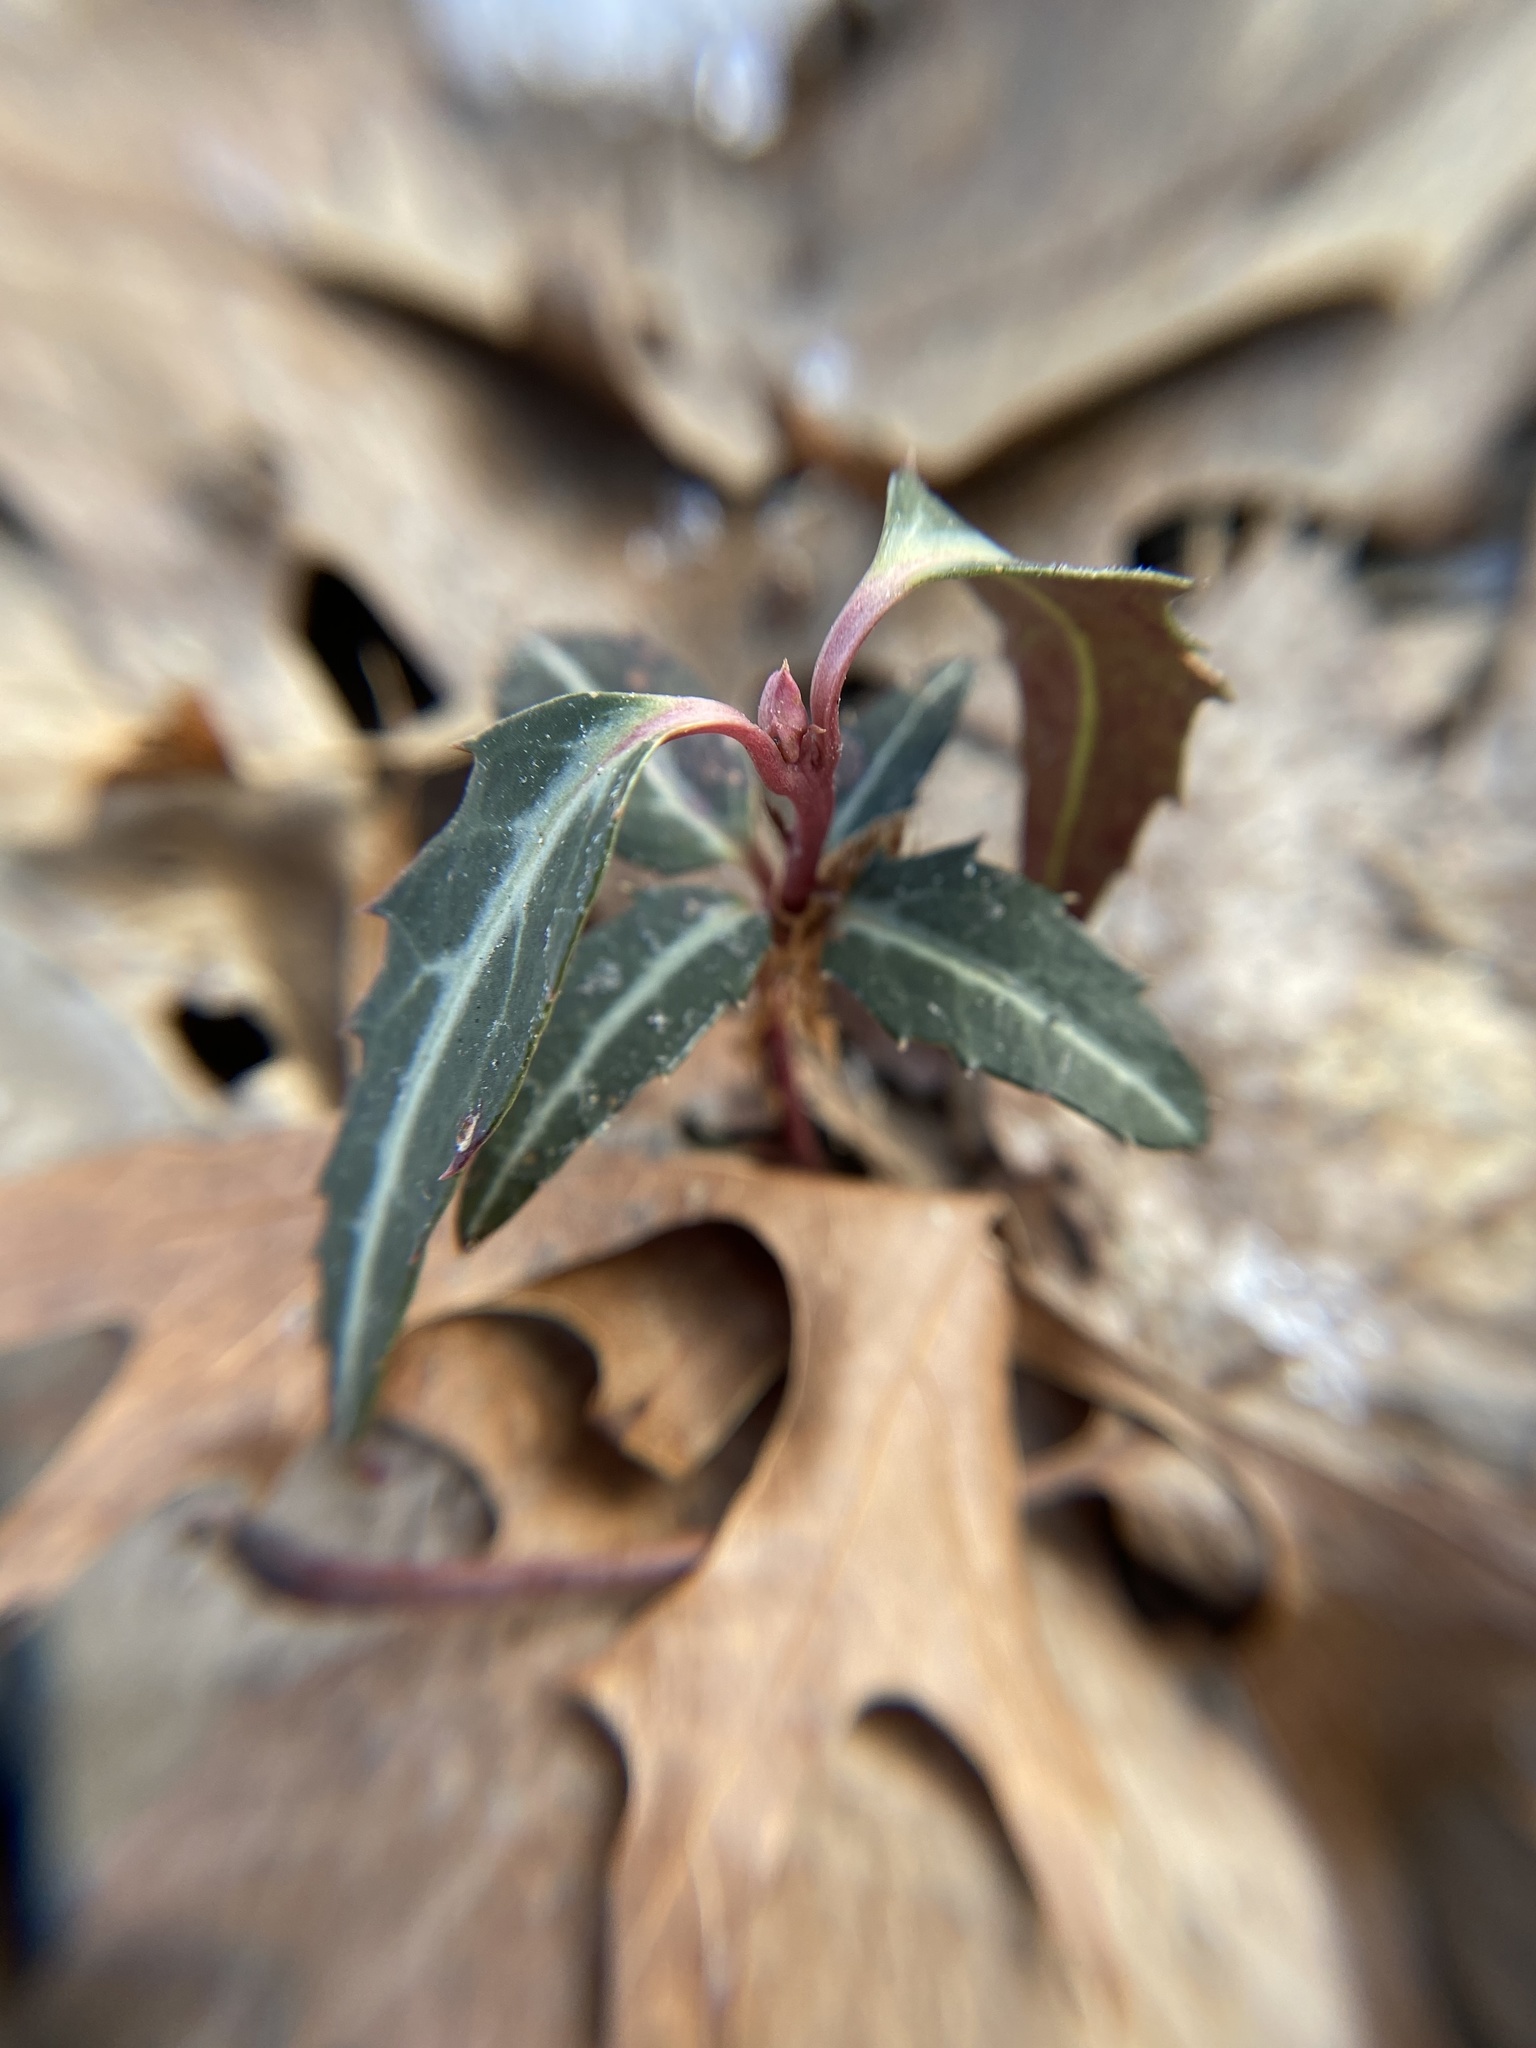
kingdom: Plantae
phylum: Tracheophyta
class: Magnoliopsida
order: Ericales
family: Ericaceae
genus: Chimaphila
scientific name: Chimaphila maculata
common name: Spotted pipsissewa
